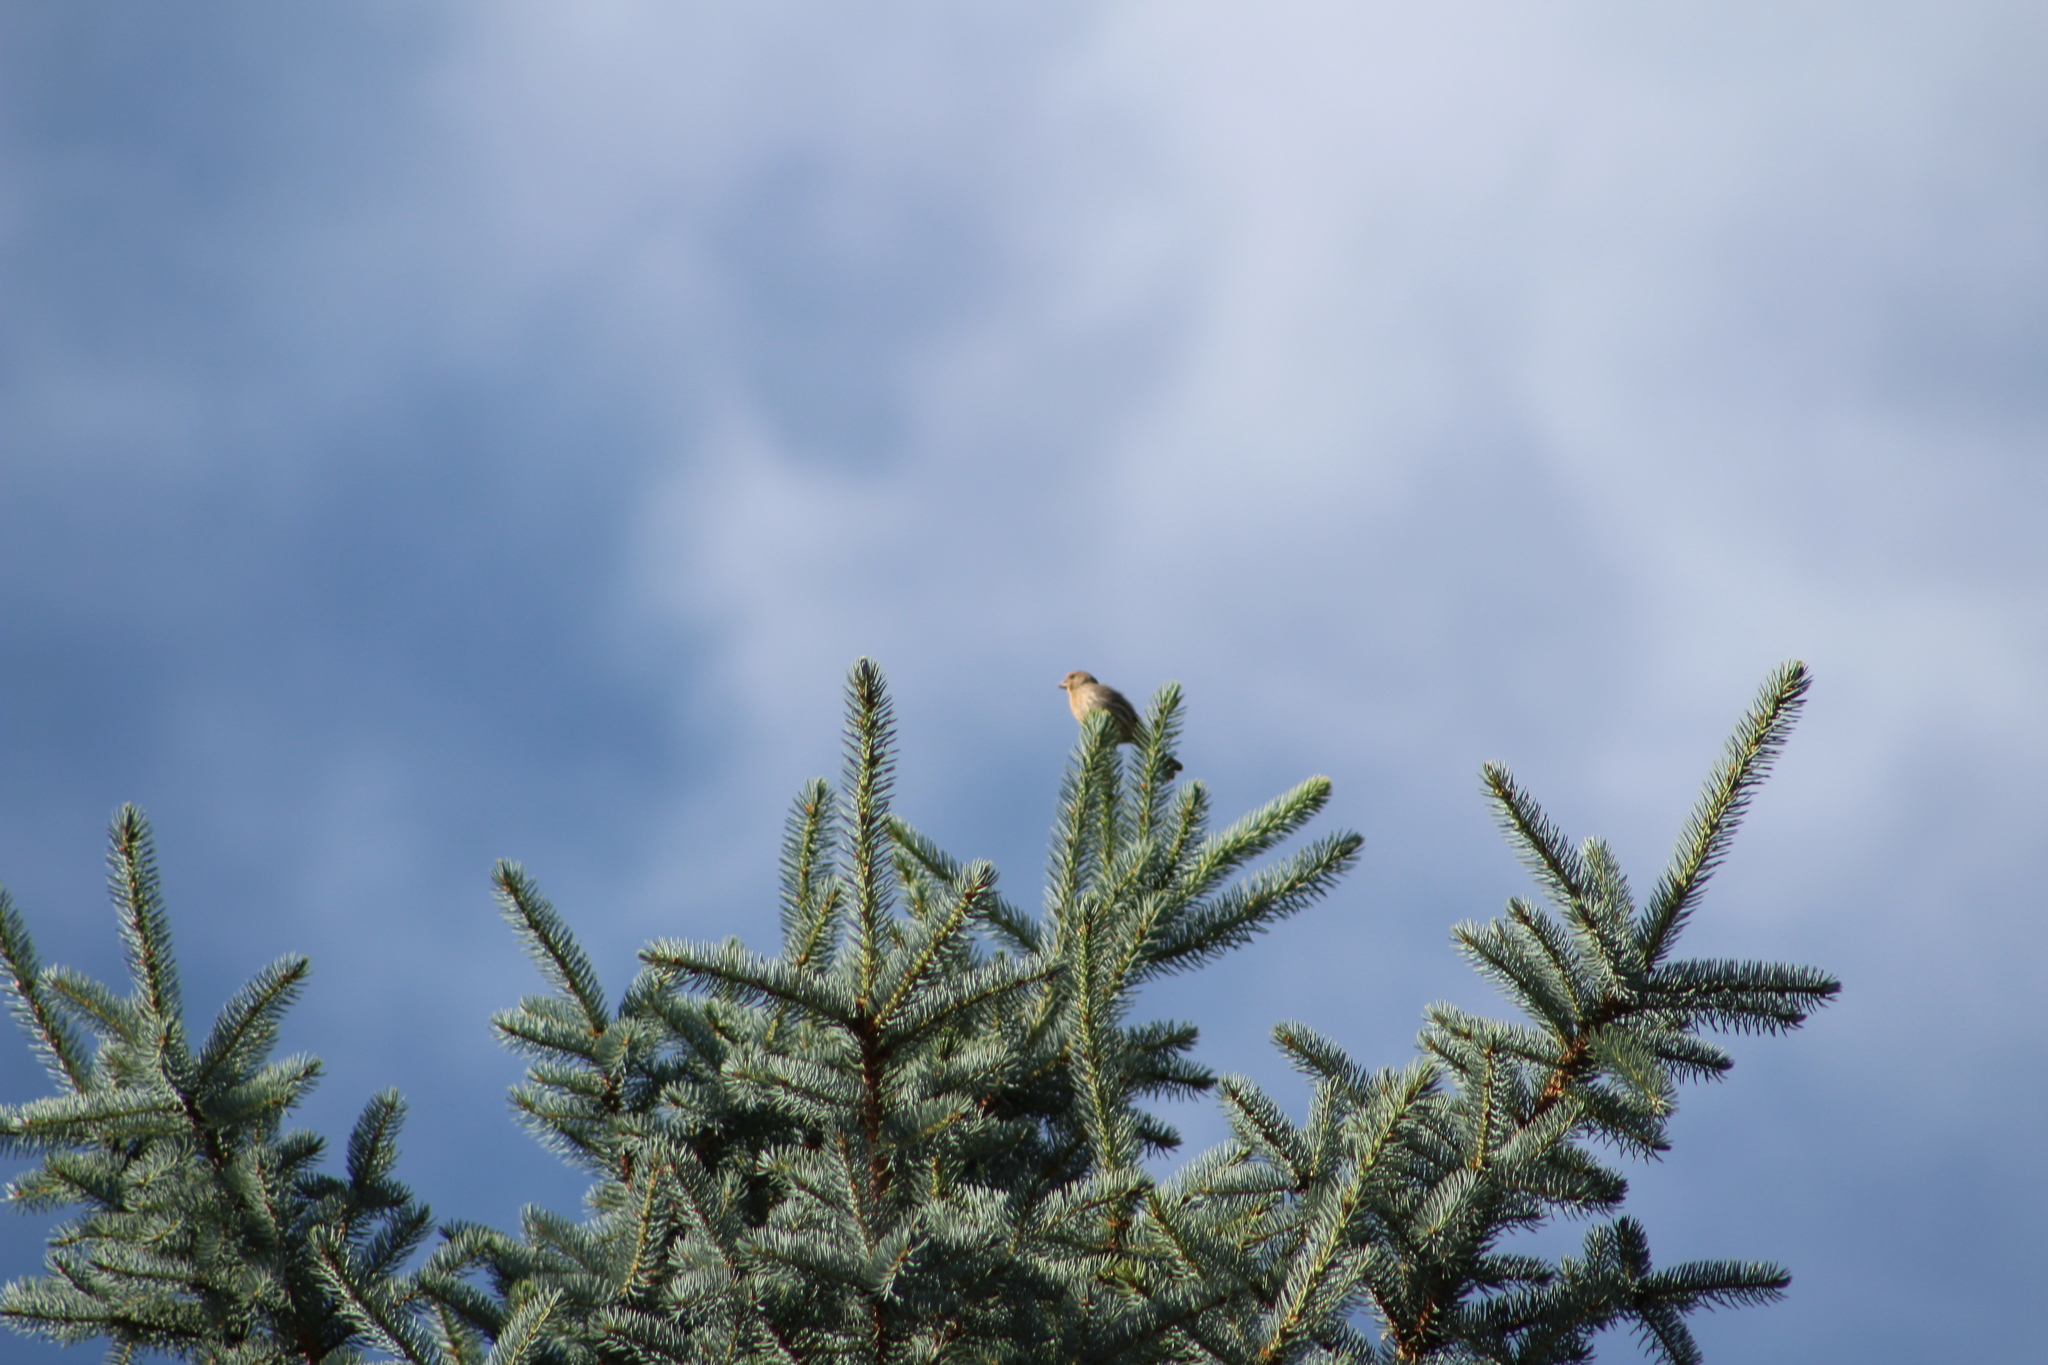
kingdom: Animalia
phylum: Chordata
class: Aves
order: Passeriformes
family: Fringillidae
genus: Haemorhous
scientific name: Haemorhous mexicanus
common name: House finch
